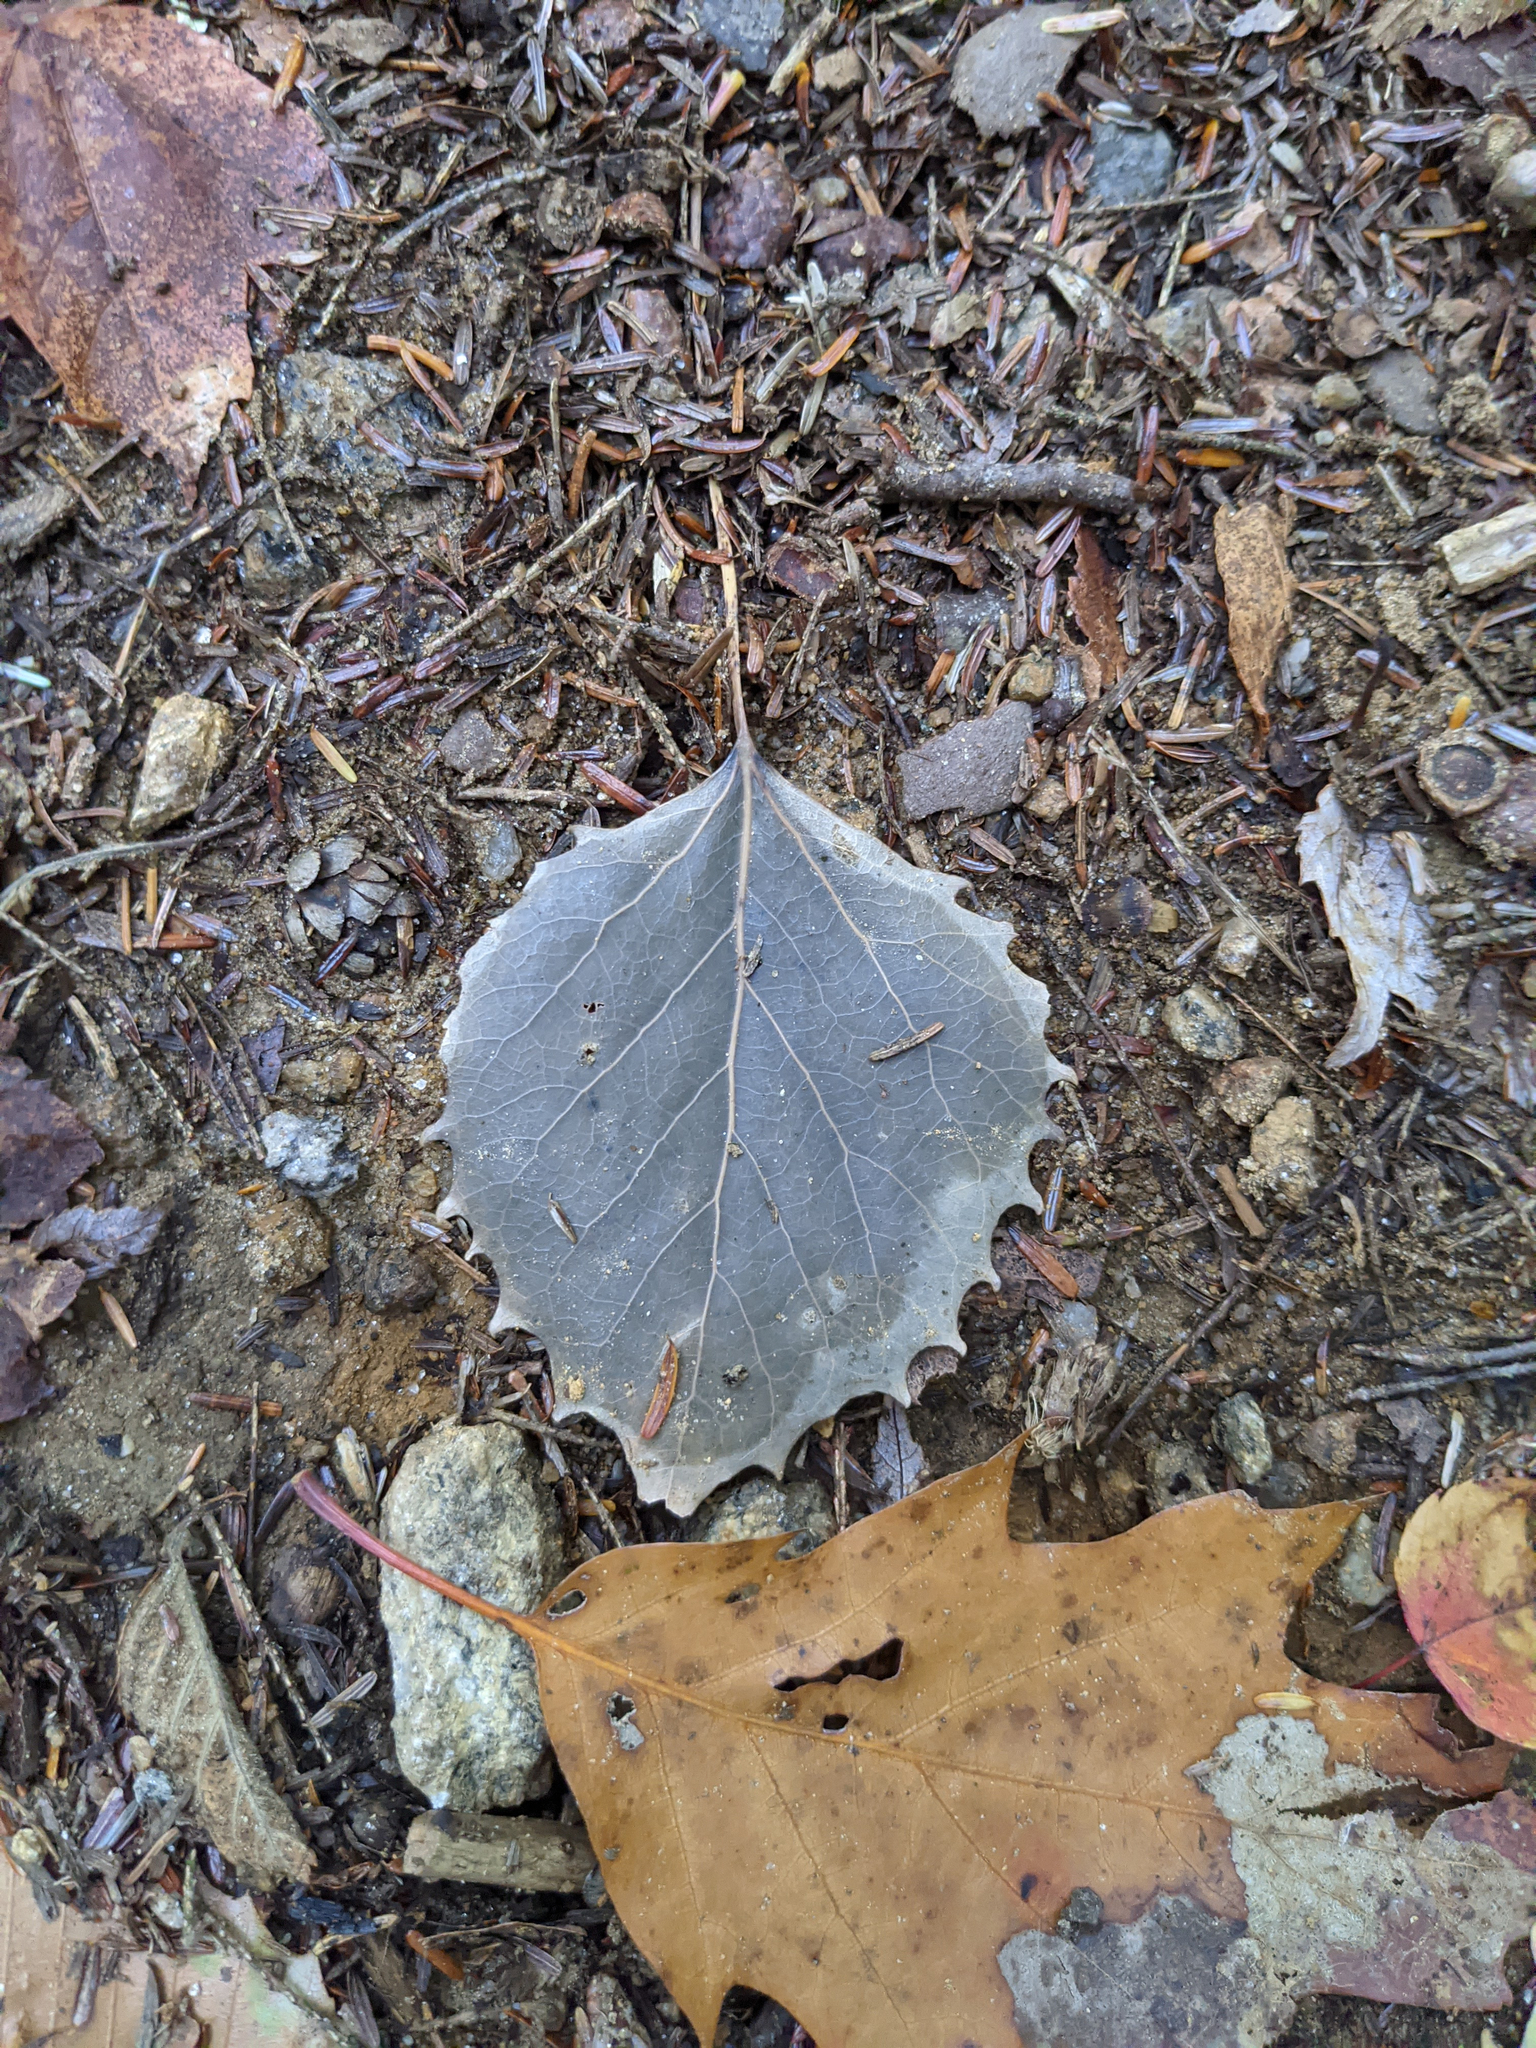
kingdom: Plantae
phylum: Tracheophyta
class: Magnoliopsida
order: Malpighiales
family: Salicaceae
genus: Populus
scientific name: Populus grandidentata
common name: Bigtooth aspen
